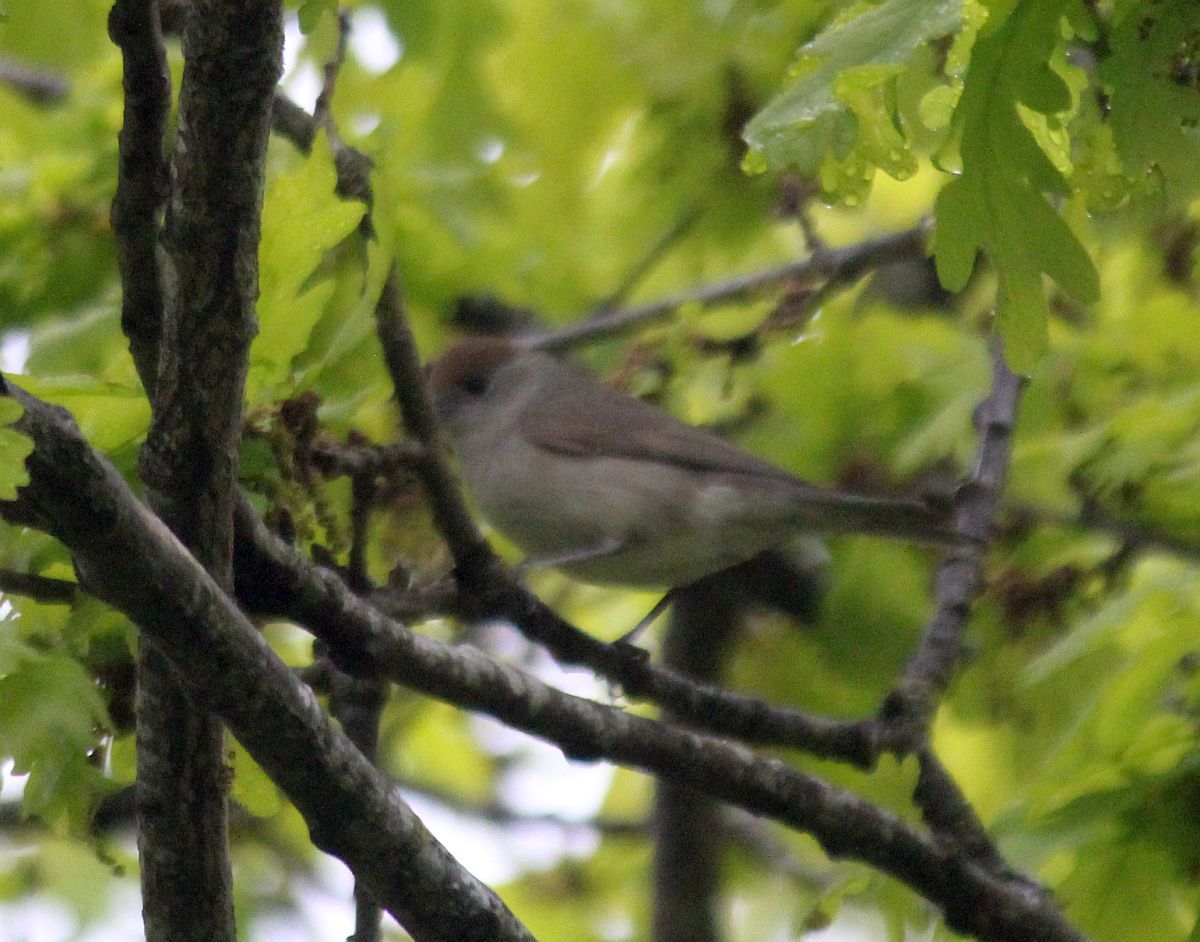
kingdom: Animalia
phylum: Chordata
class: Aves
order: Passeriformes
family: Sylviidae
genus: Sylvia
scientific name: Sylvia atricapilla
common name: Eurasian blackcap
